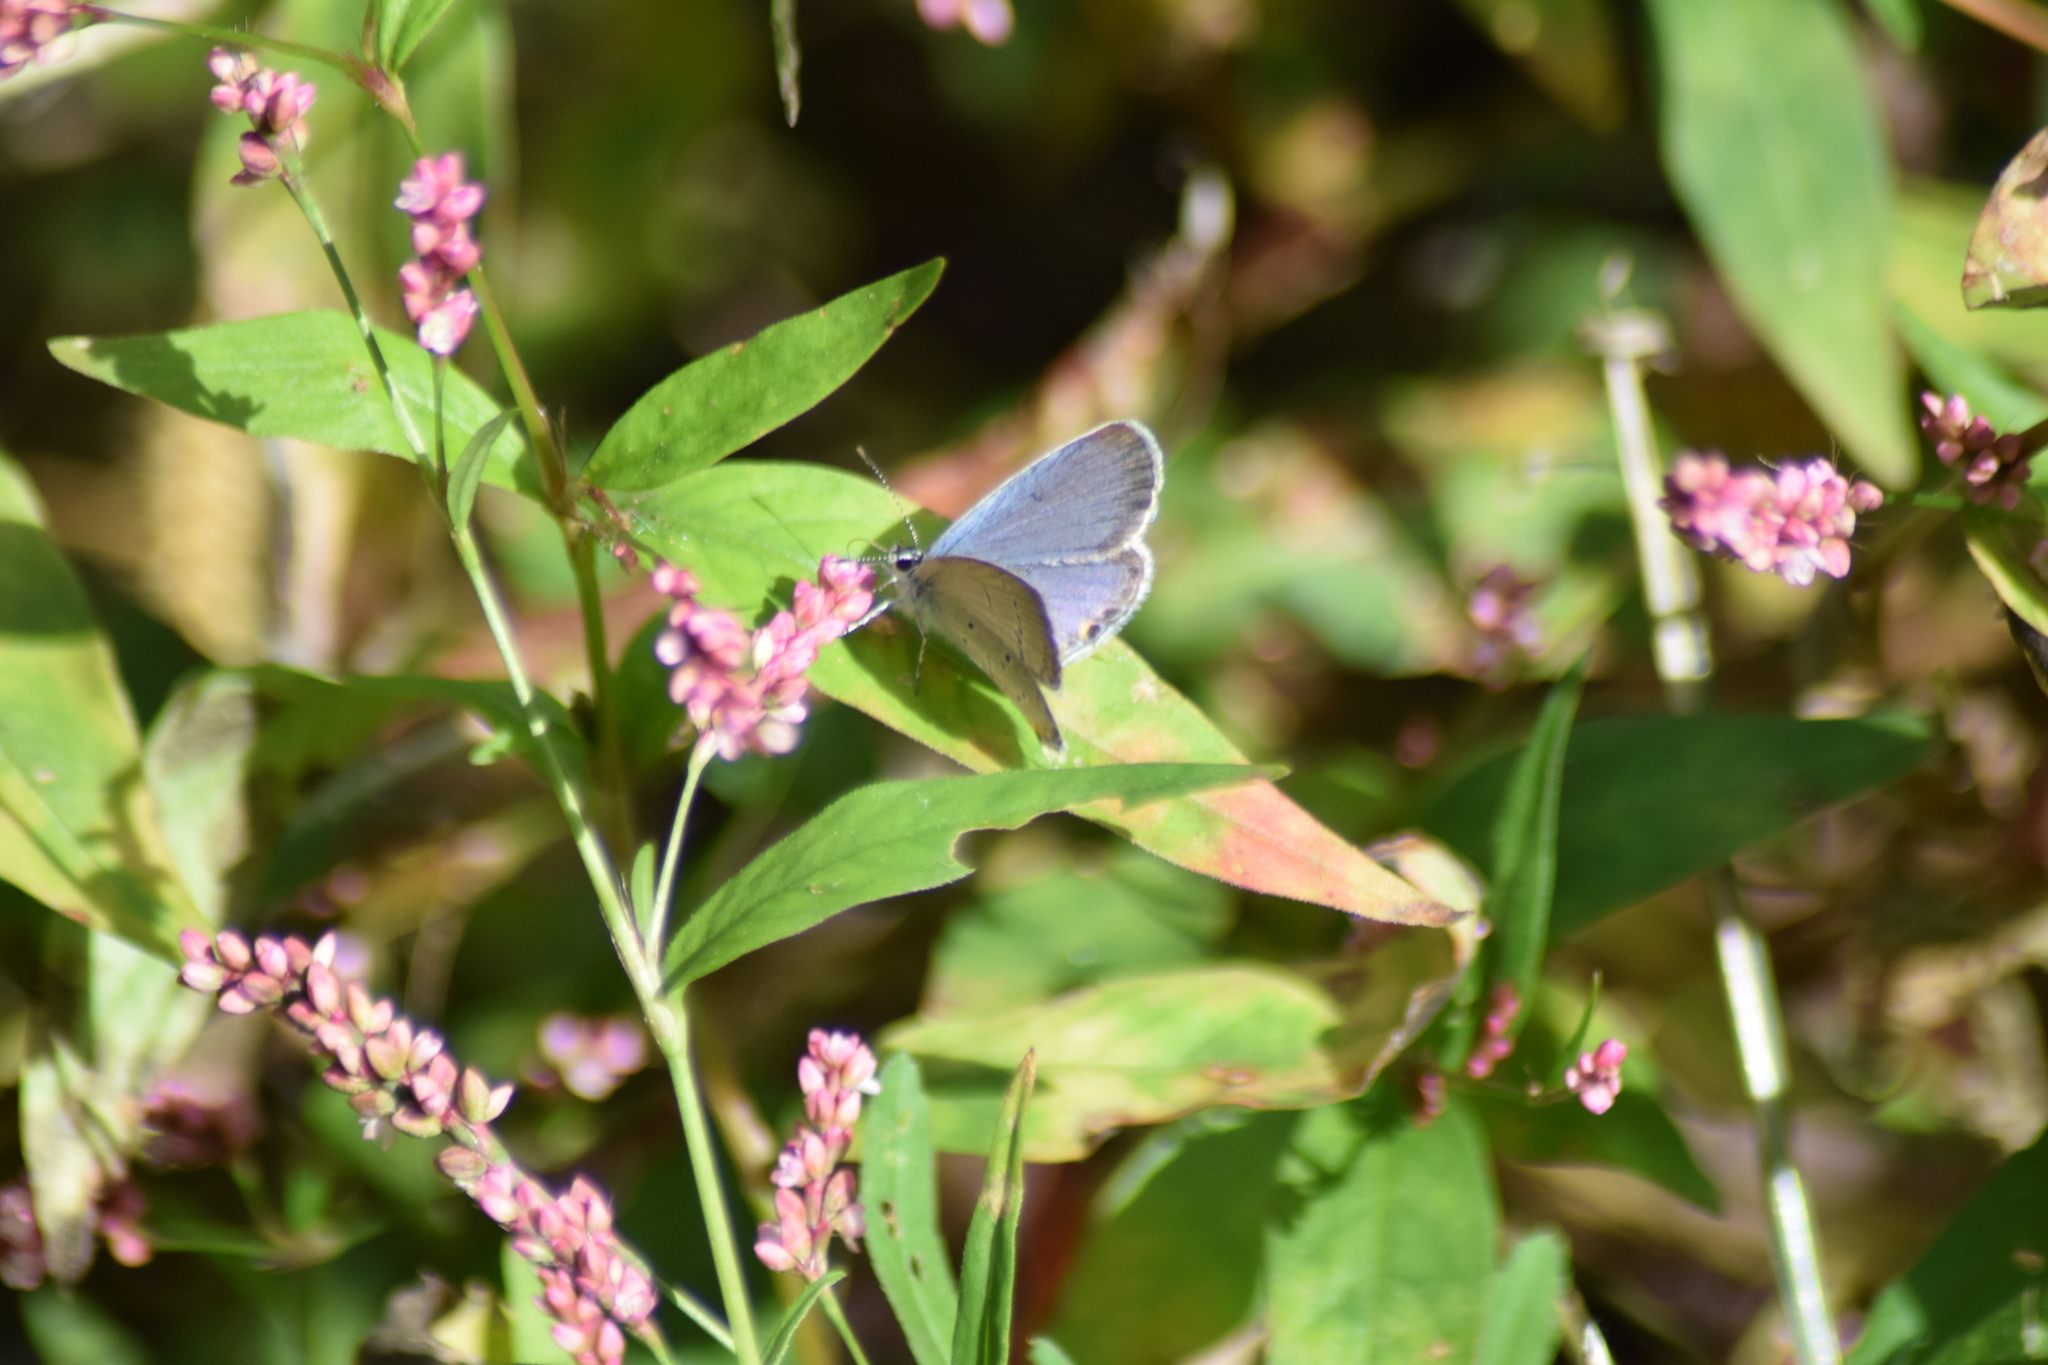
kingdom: Animalia
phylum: Arthropoda
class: Insecta
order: Lepidoptera
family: Lycaenidae
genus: Elkalyce
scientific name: Elkalyce comyntas
